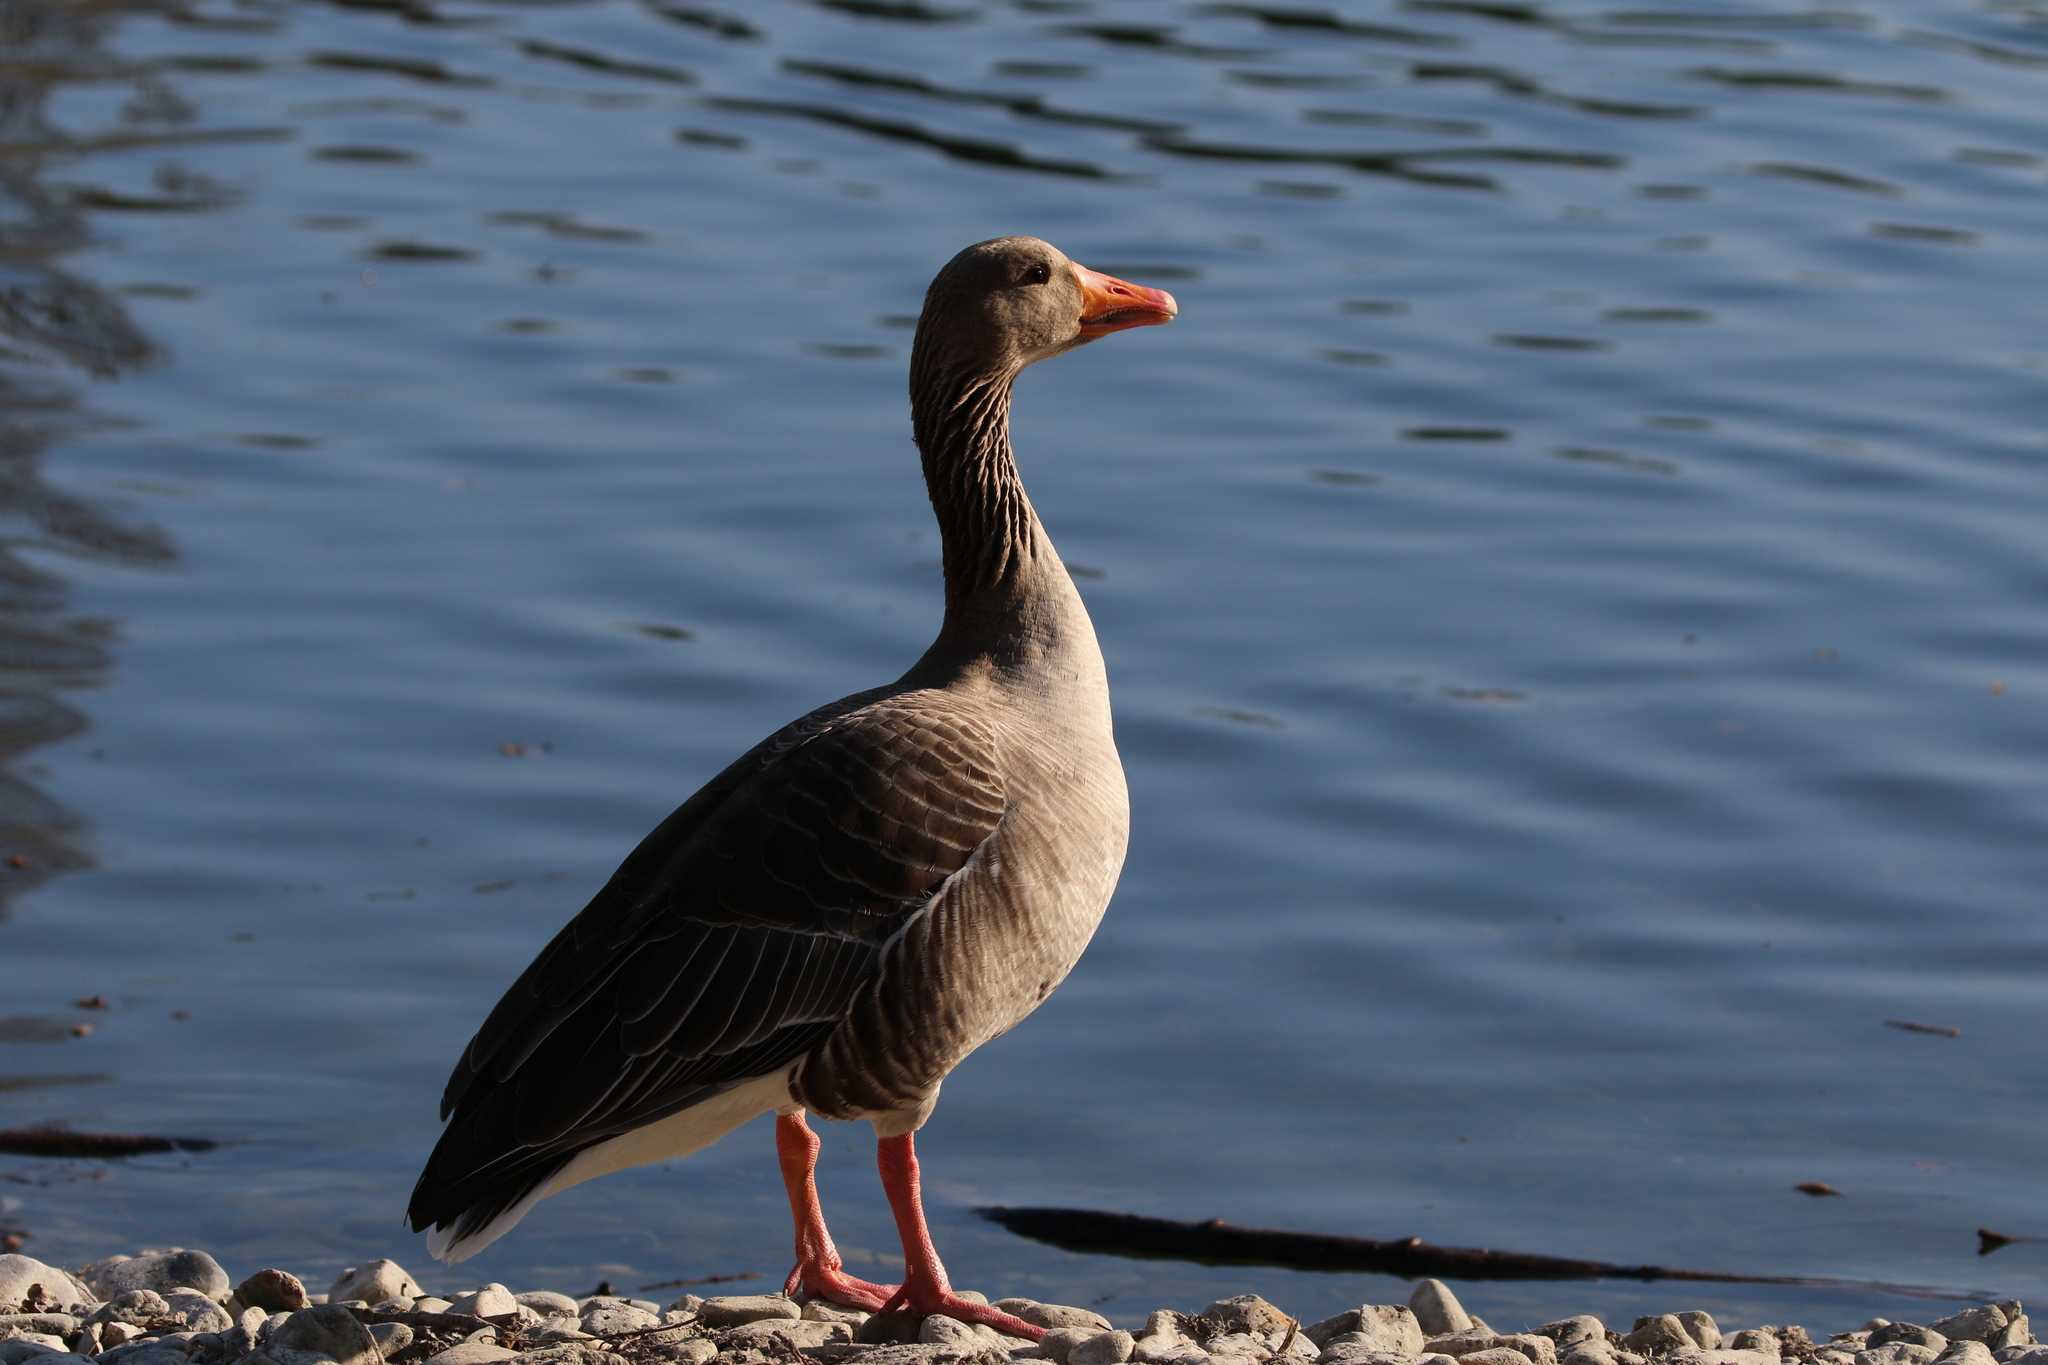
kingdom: Animalia
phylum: Chordata
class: Aves
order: Anseriformes
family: Anatidae
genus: Anser
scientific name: Anser anser
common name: Greylag goose
